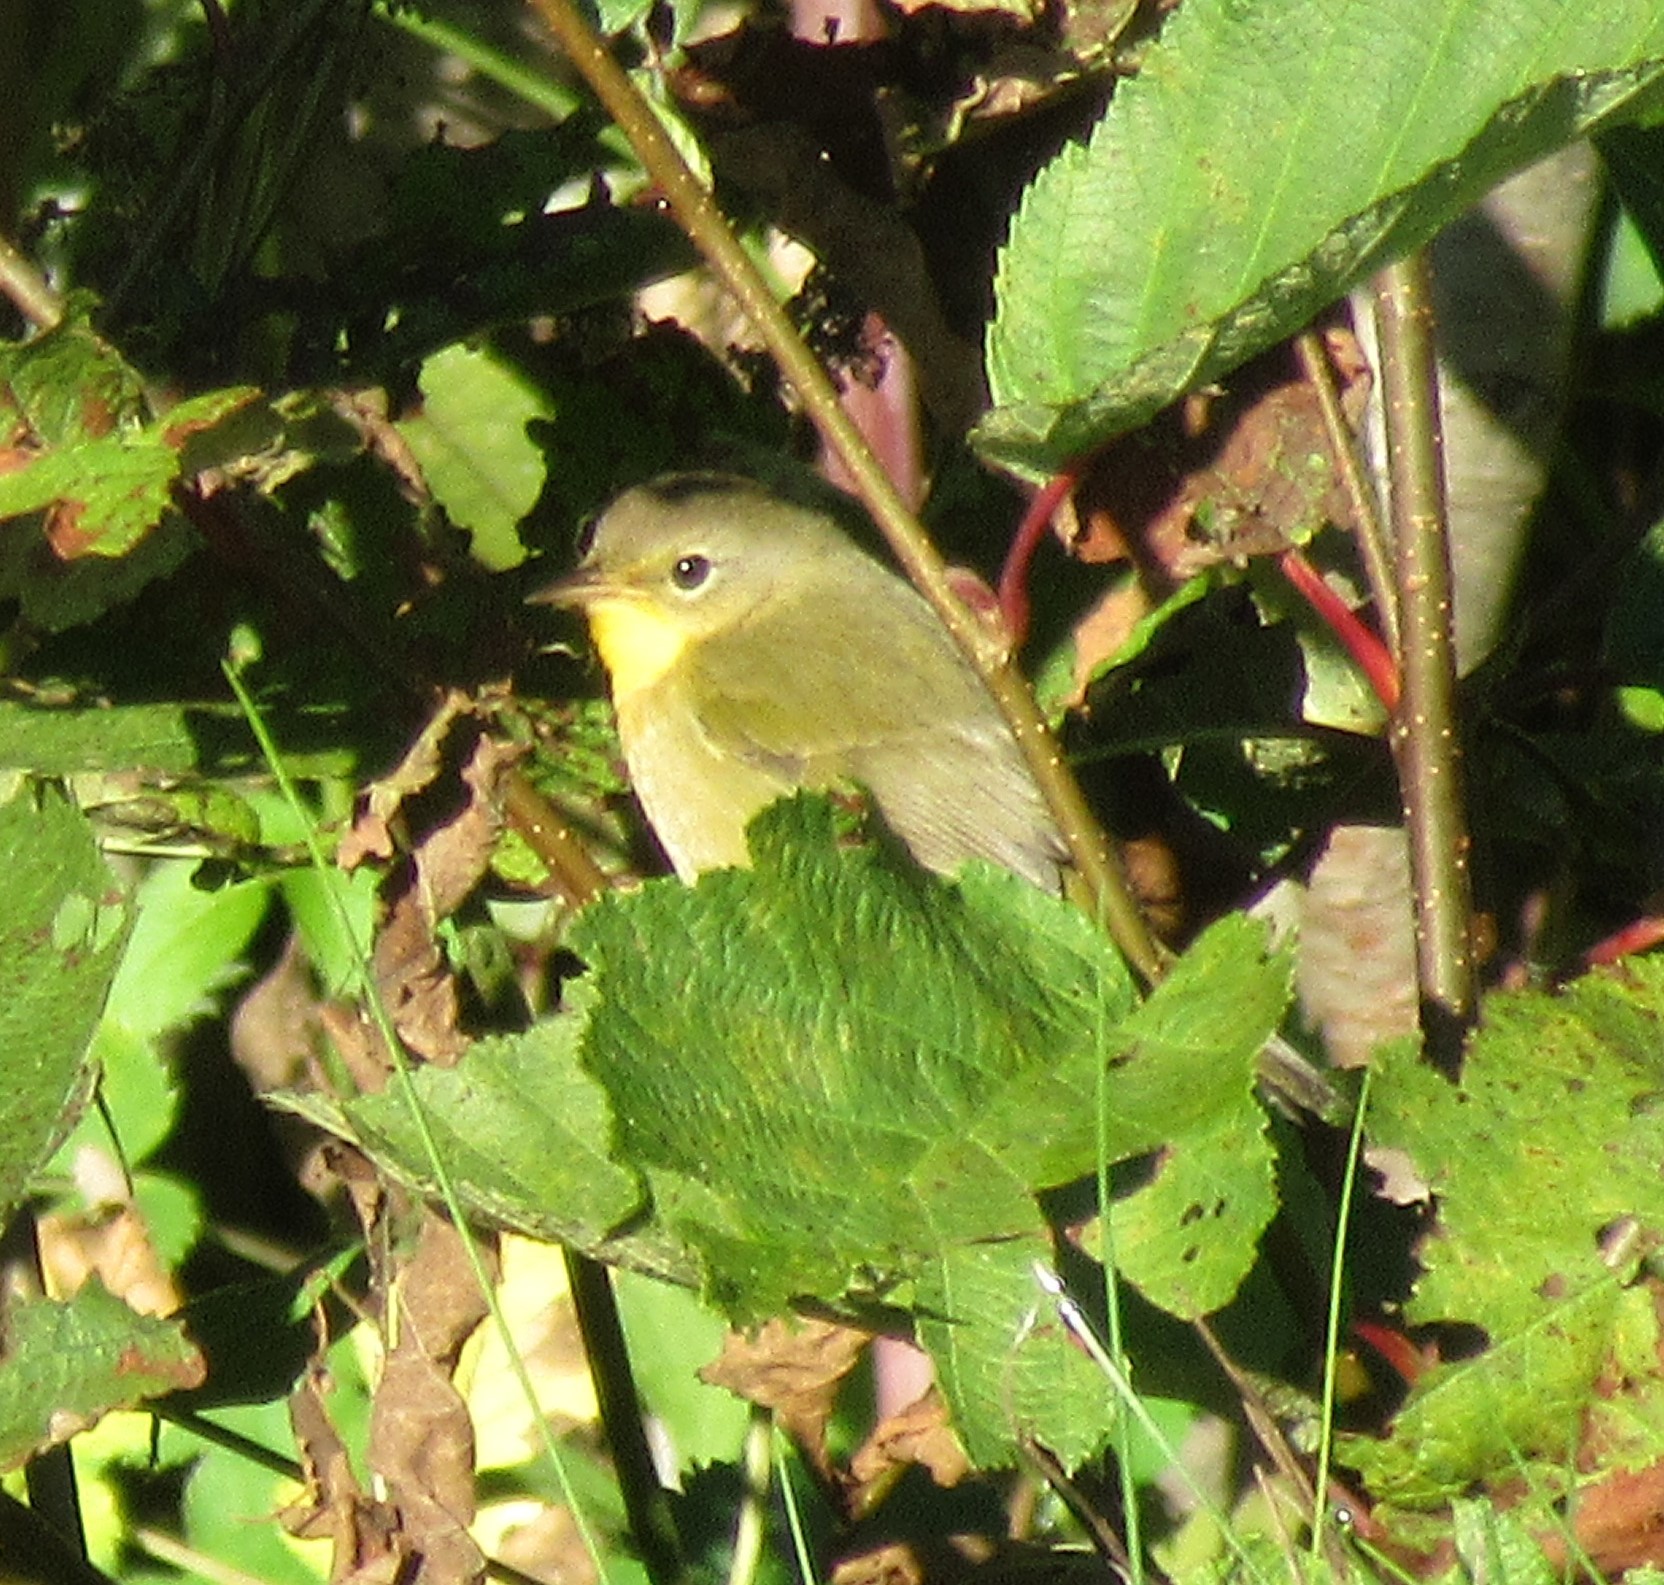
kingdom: Animalia
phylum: Chordata
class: Aves
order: Passeriformes
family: Parulidae
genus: Geothlypis
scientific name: Geothlypis trichas
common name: Common yellowthroat
